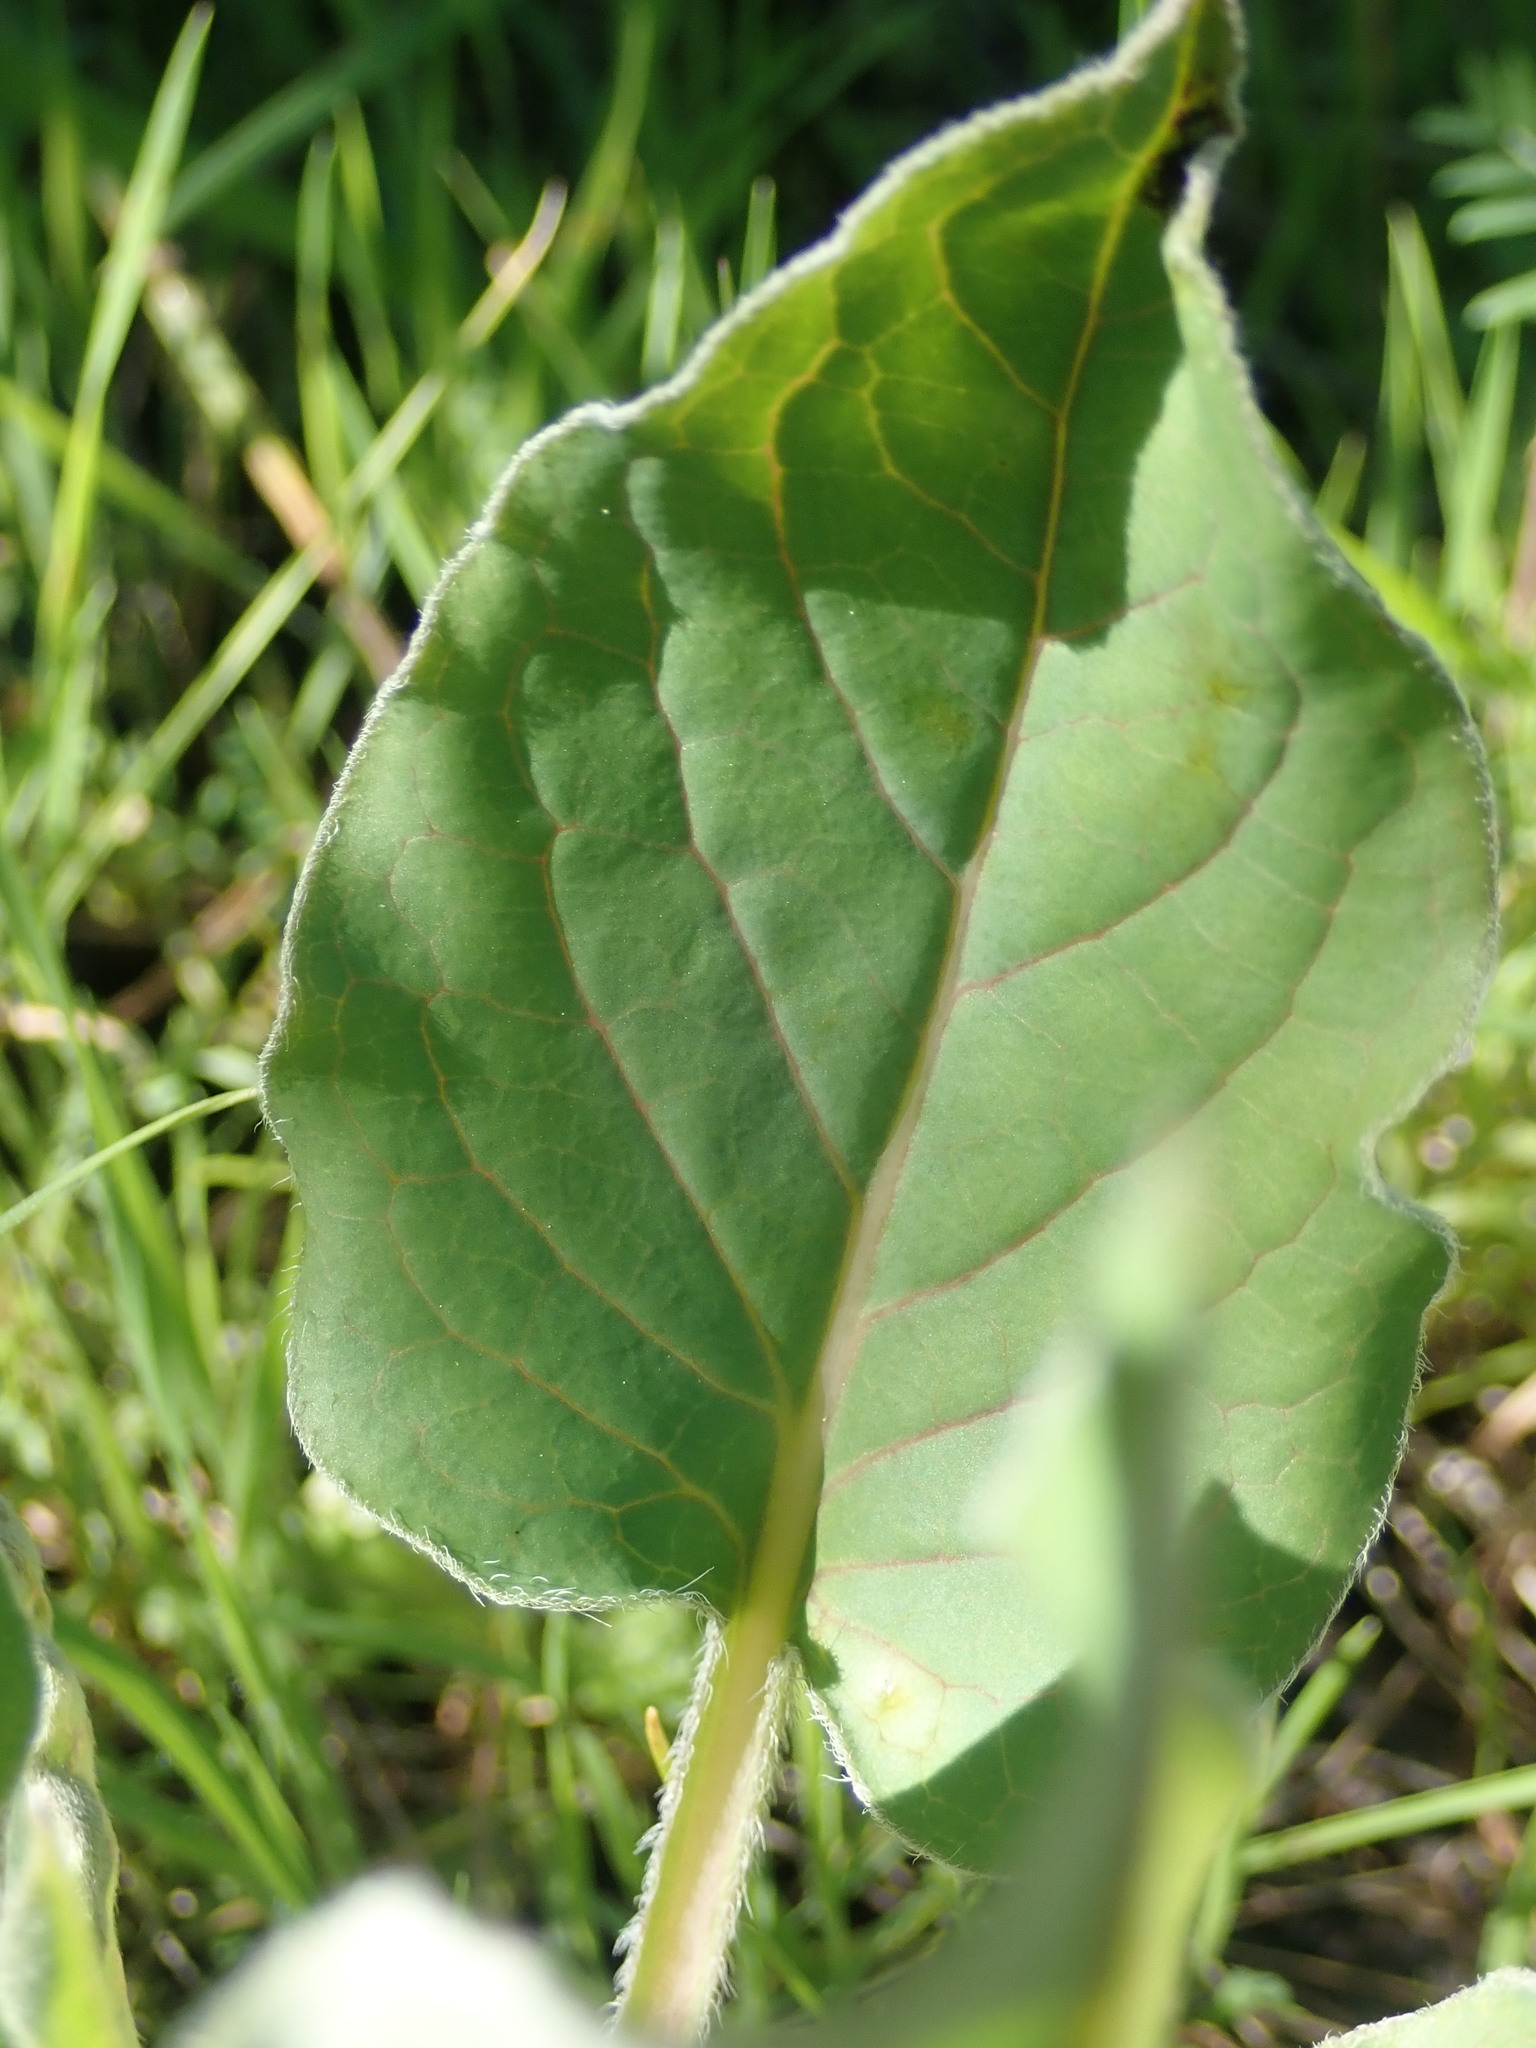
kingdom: Plantae
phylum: Tracheophyta
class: Magnoliopsida
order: Boraginales
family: Boraginaceae
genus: Adelinia
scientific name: Adelinia grande
